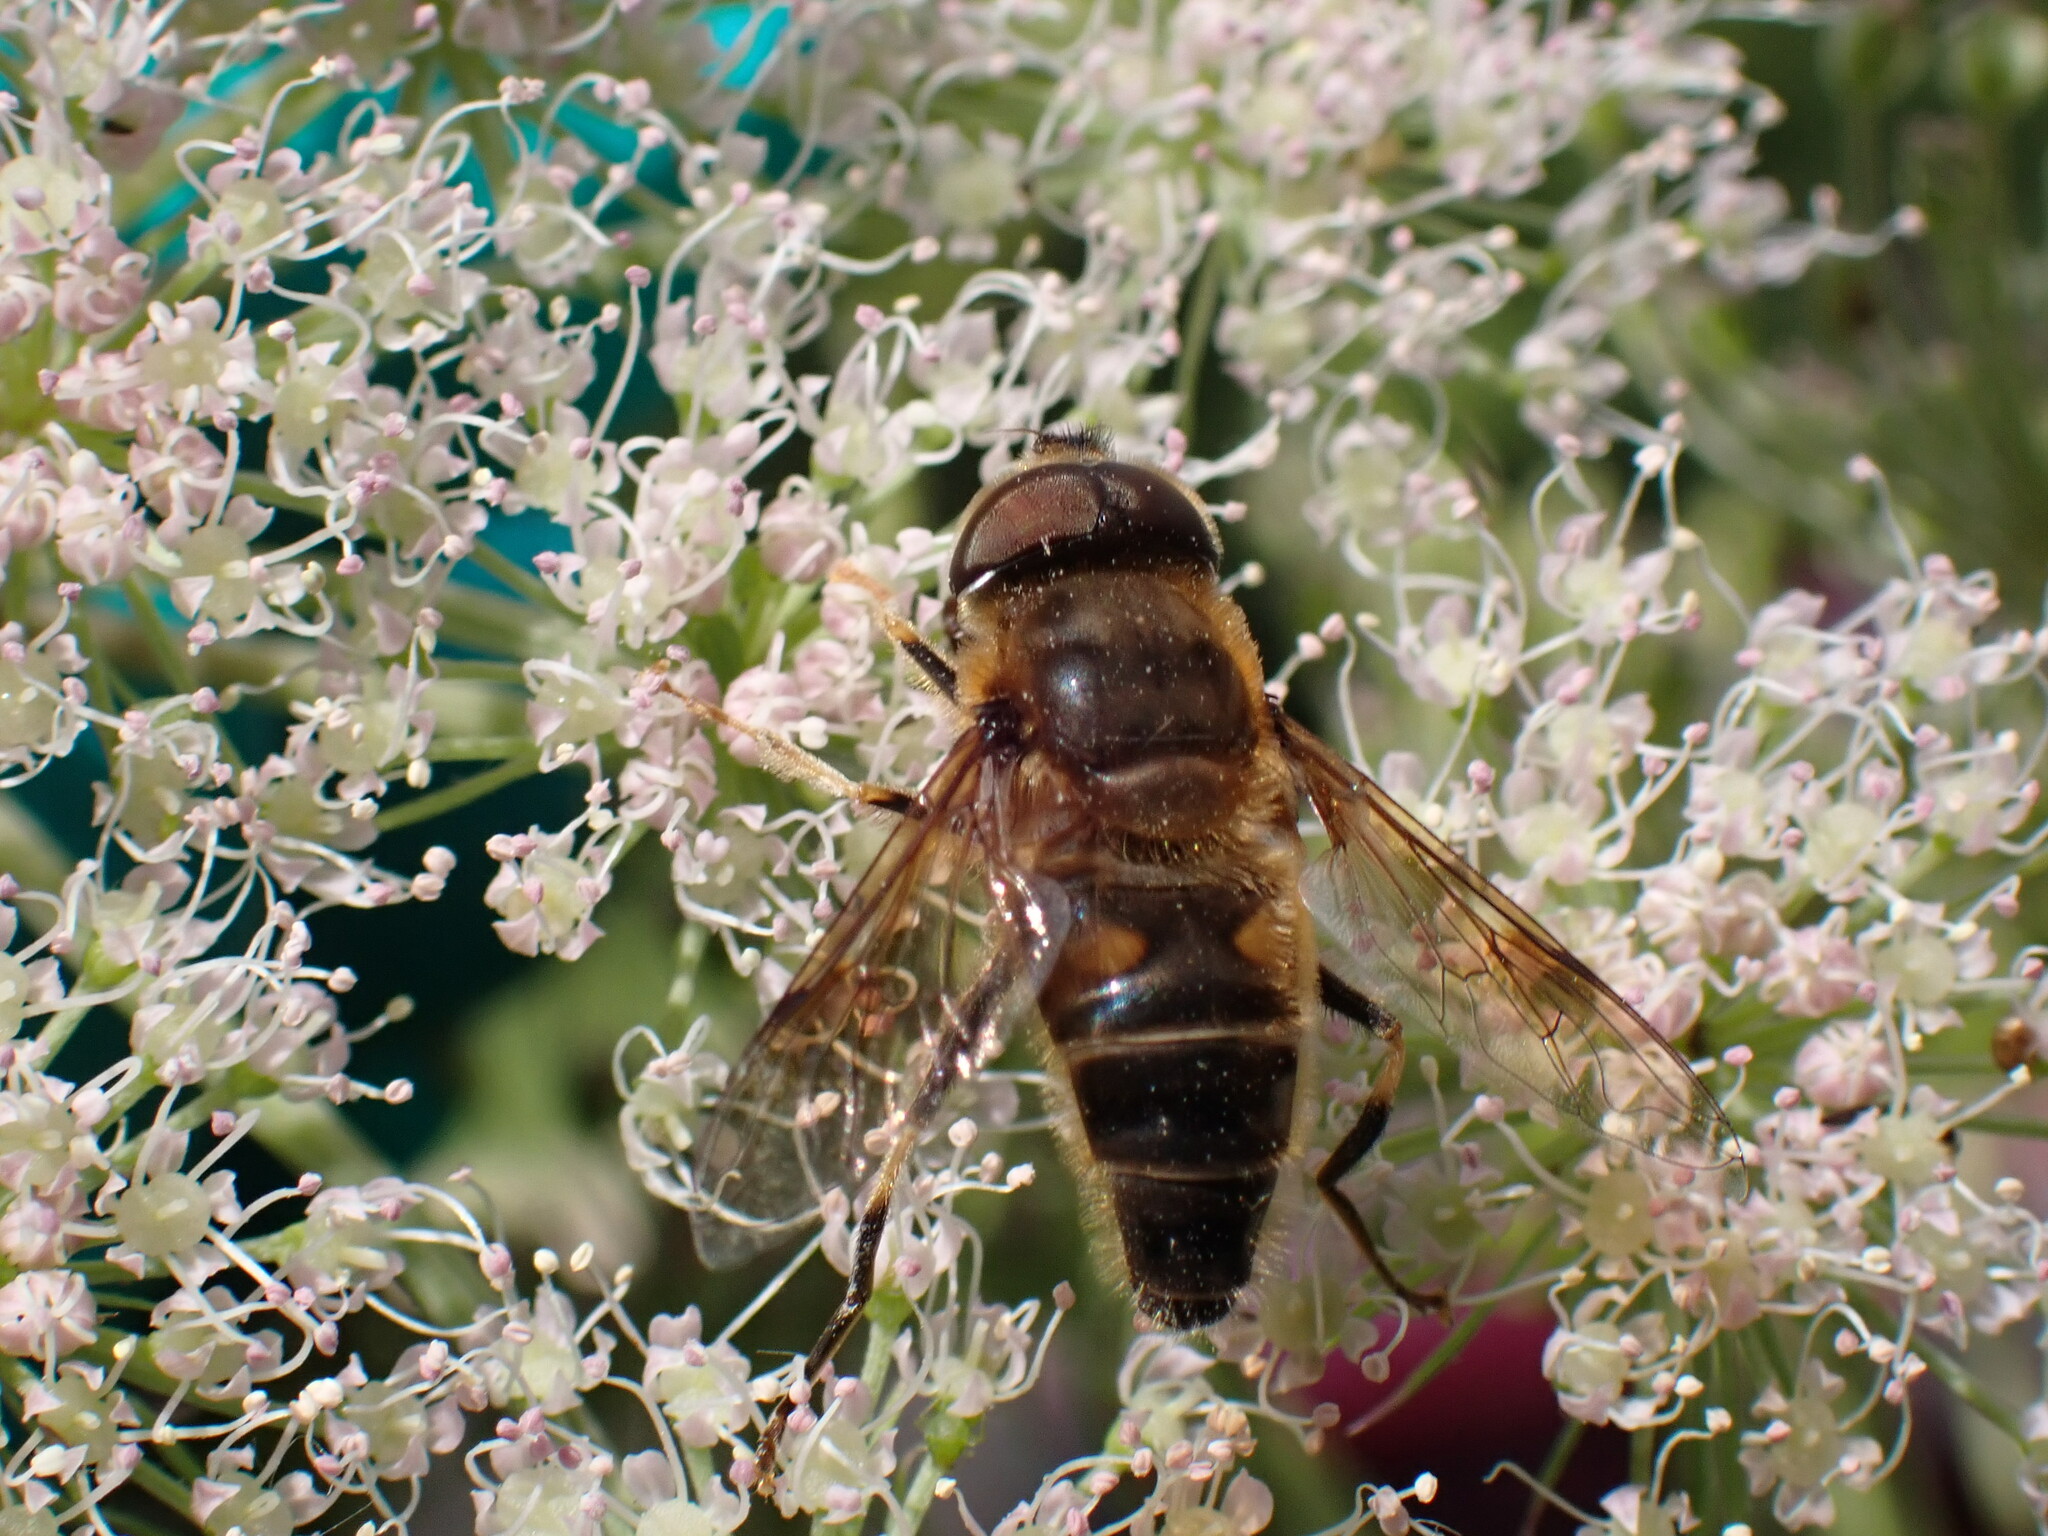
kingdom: Animalia
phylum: Arthropoda
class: Insecta
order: Diptera
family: Syrphidae
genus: Eristalis
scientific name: Eristalis pertinax
